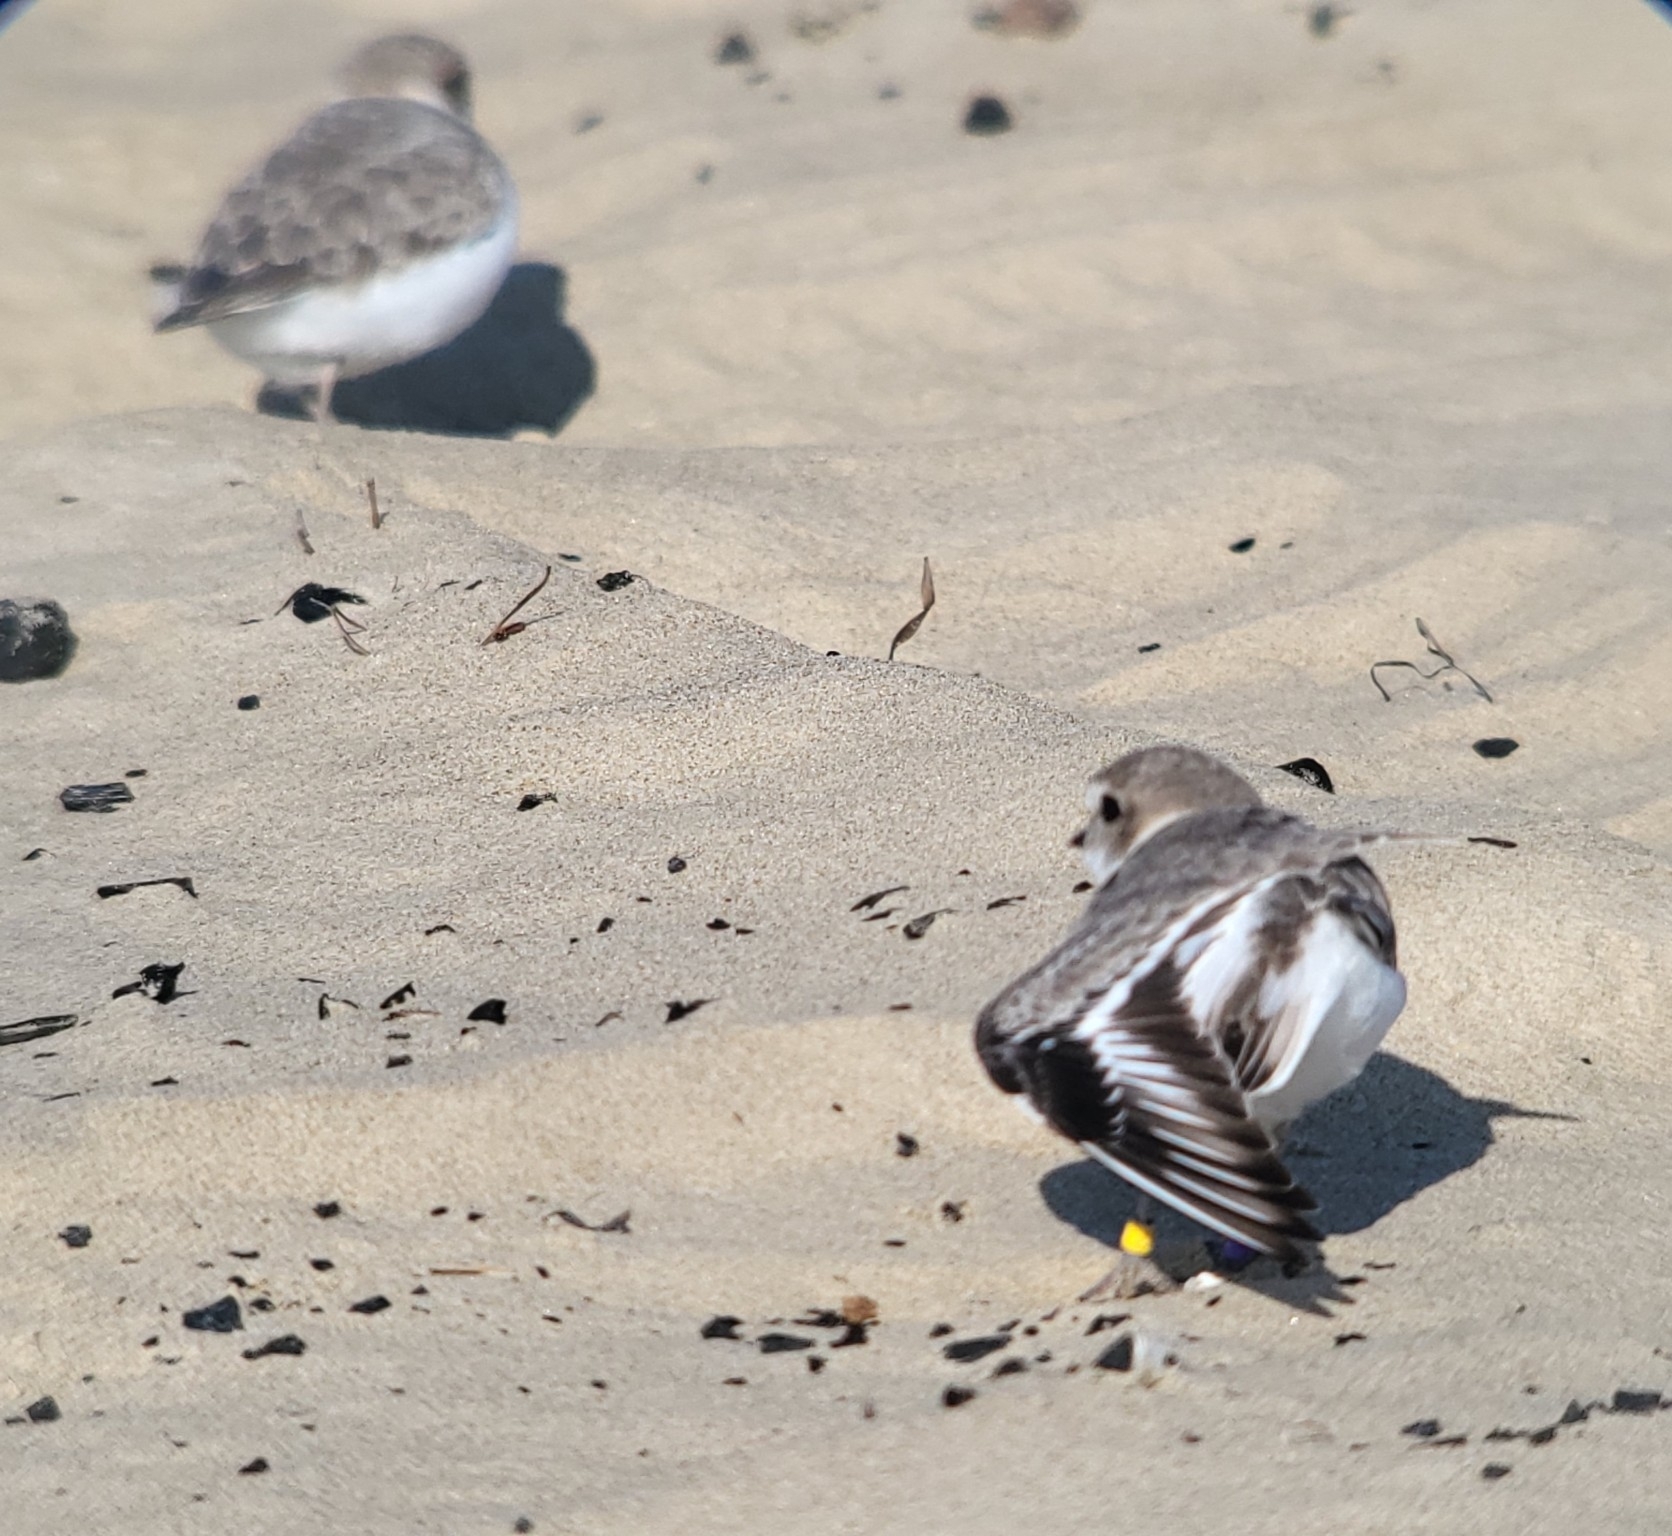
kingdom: Animalia
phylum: Chordata
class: Aves
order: Charadriiformes
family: Charadriidae
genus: Anarhynchus
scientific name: Anarhynchus
